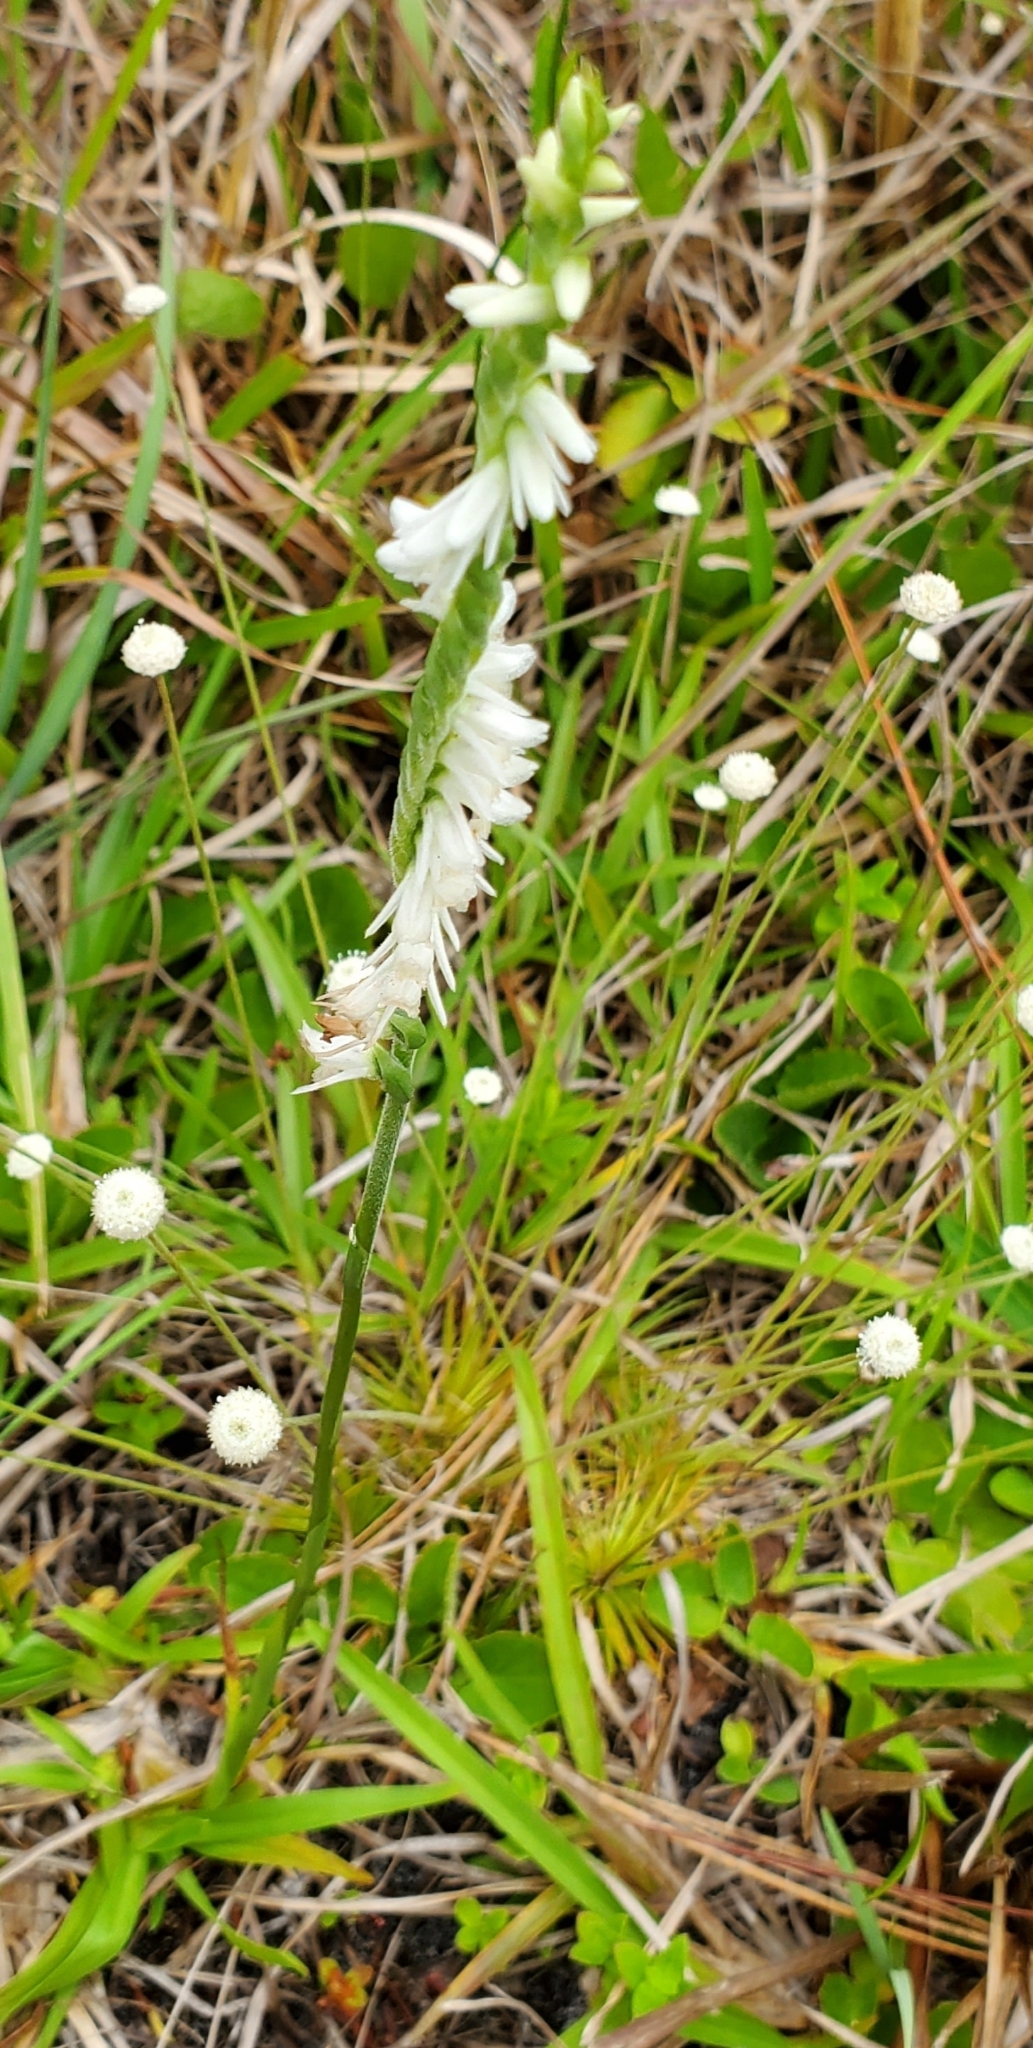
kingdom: Plantae
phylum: Tracheophyta
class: Liliopsida
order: Asparagales
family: Orchidaceae
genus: Spiranthes
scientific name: Spiranthes vernalis
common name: Spring ladies'-tresses
